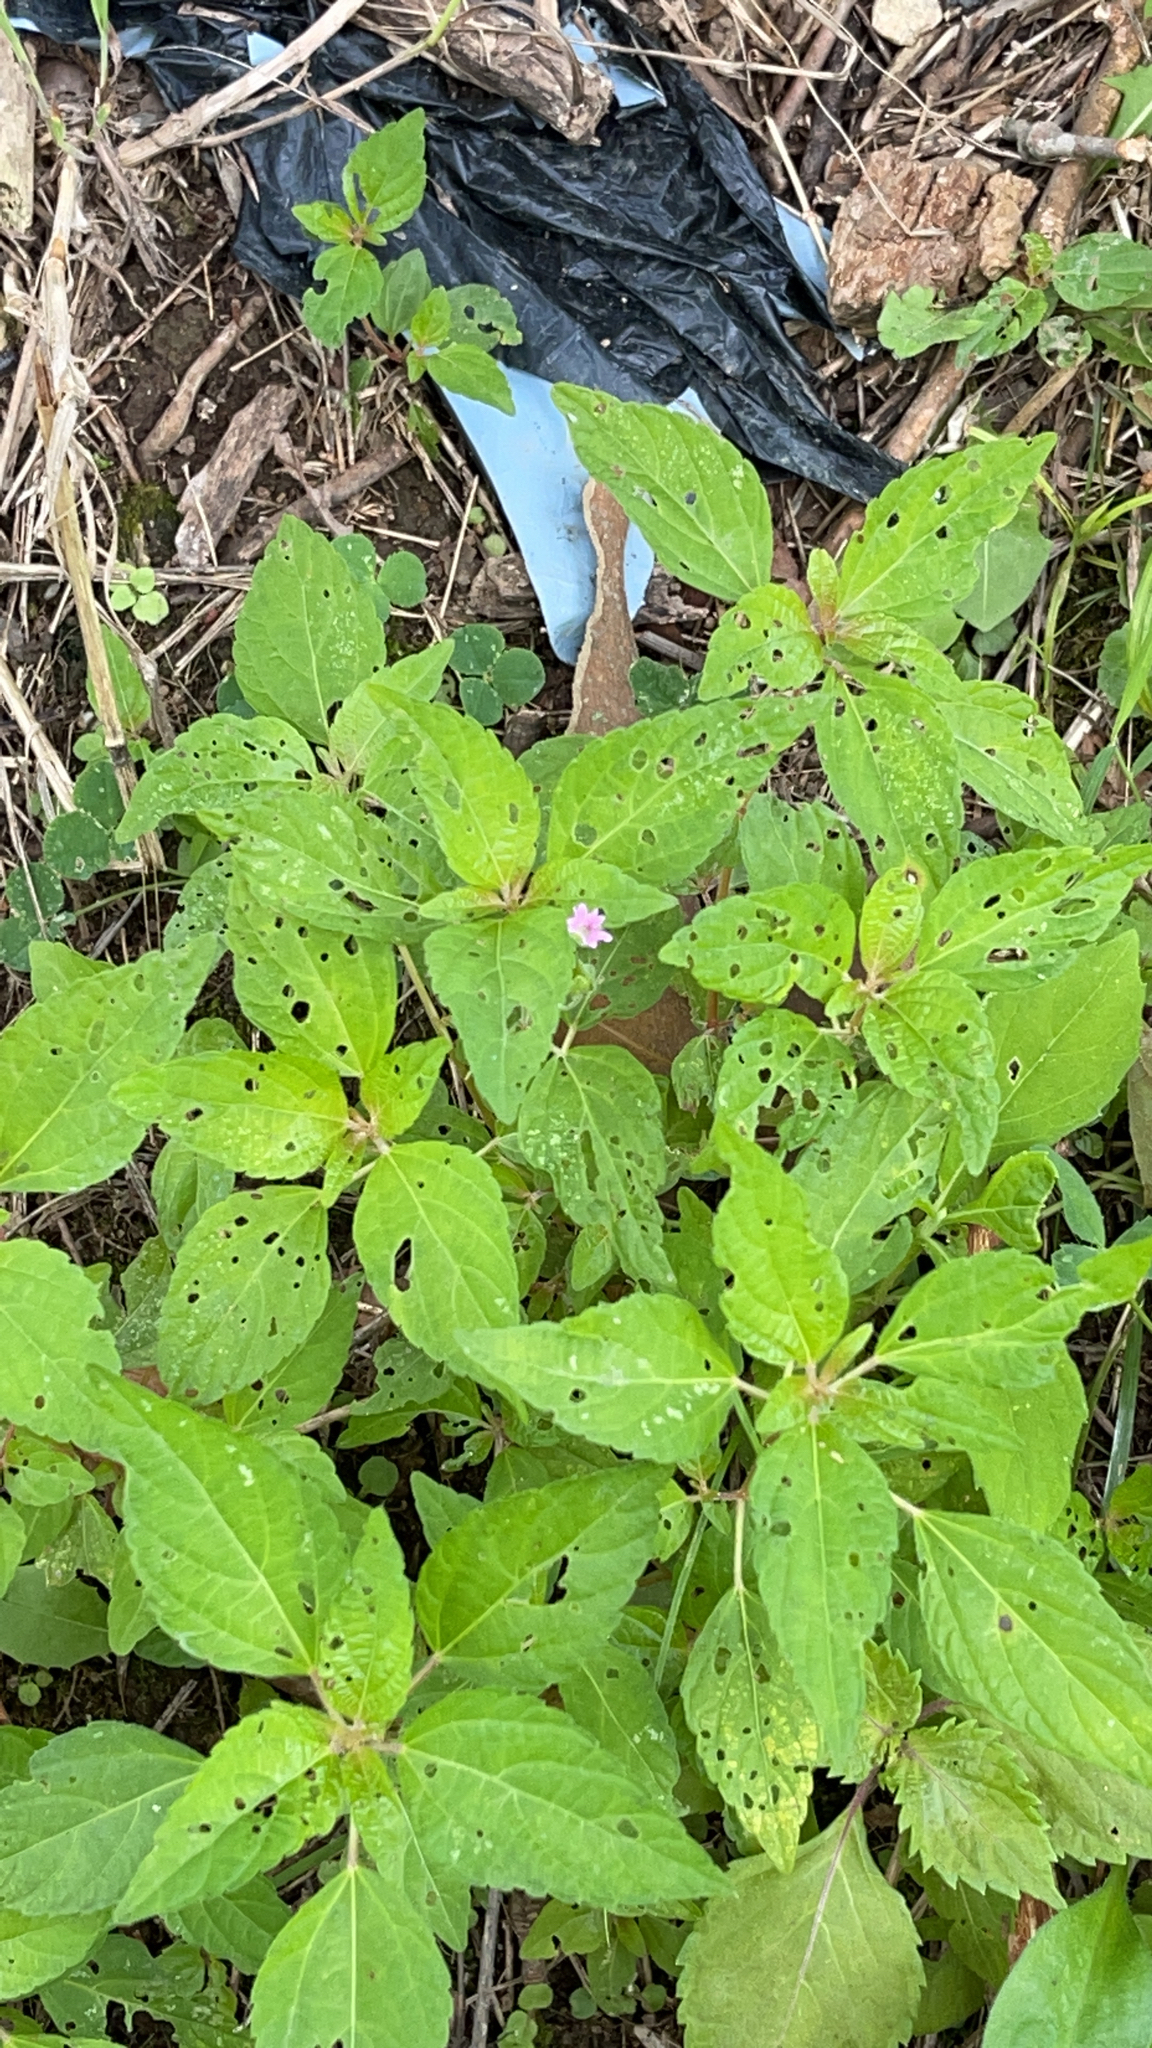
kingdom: Plantae
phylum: Tracheophyta
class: Magnoliopsida
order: Malpighiales
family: Euphorbiaceae
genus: Acalypha
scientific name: Acalypha rhomboidea
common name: Rhombic copperleaf
